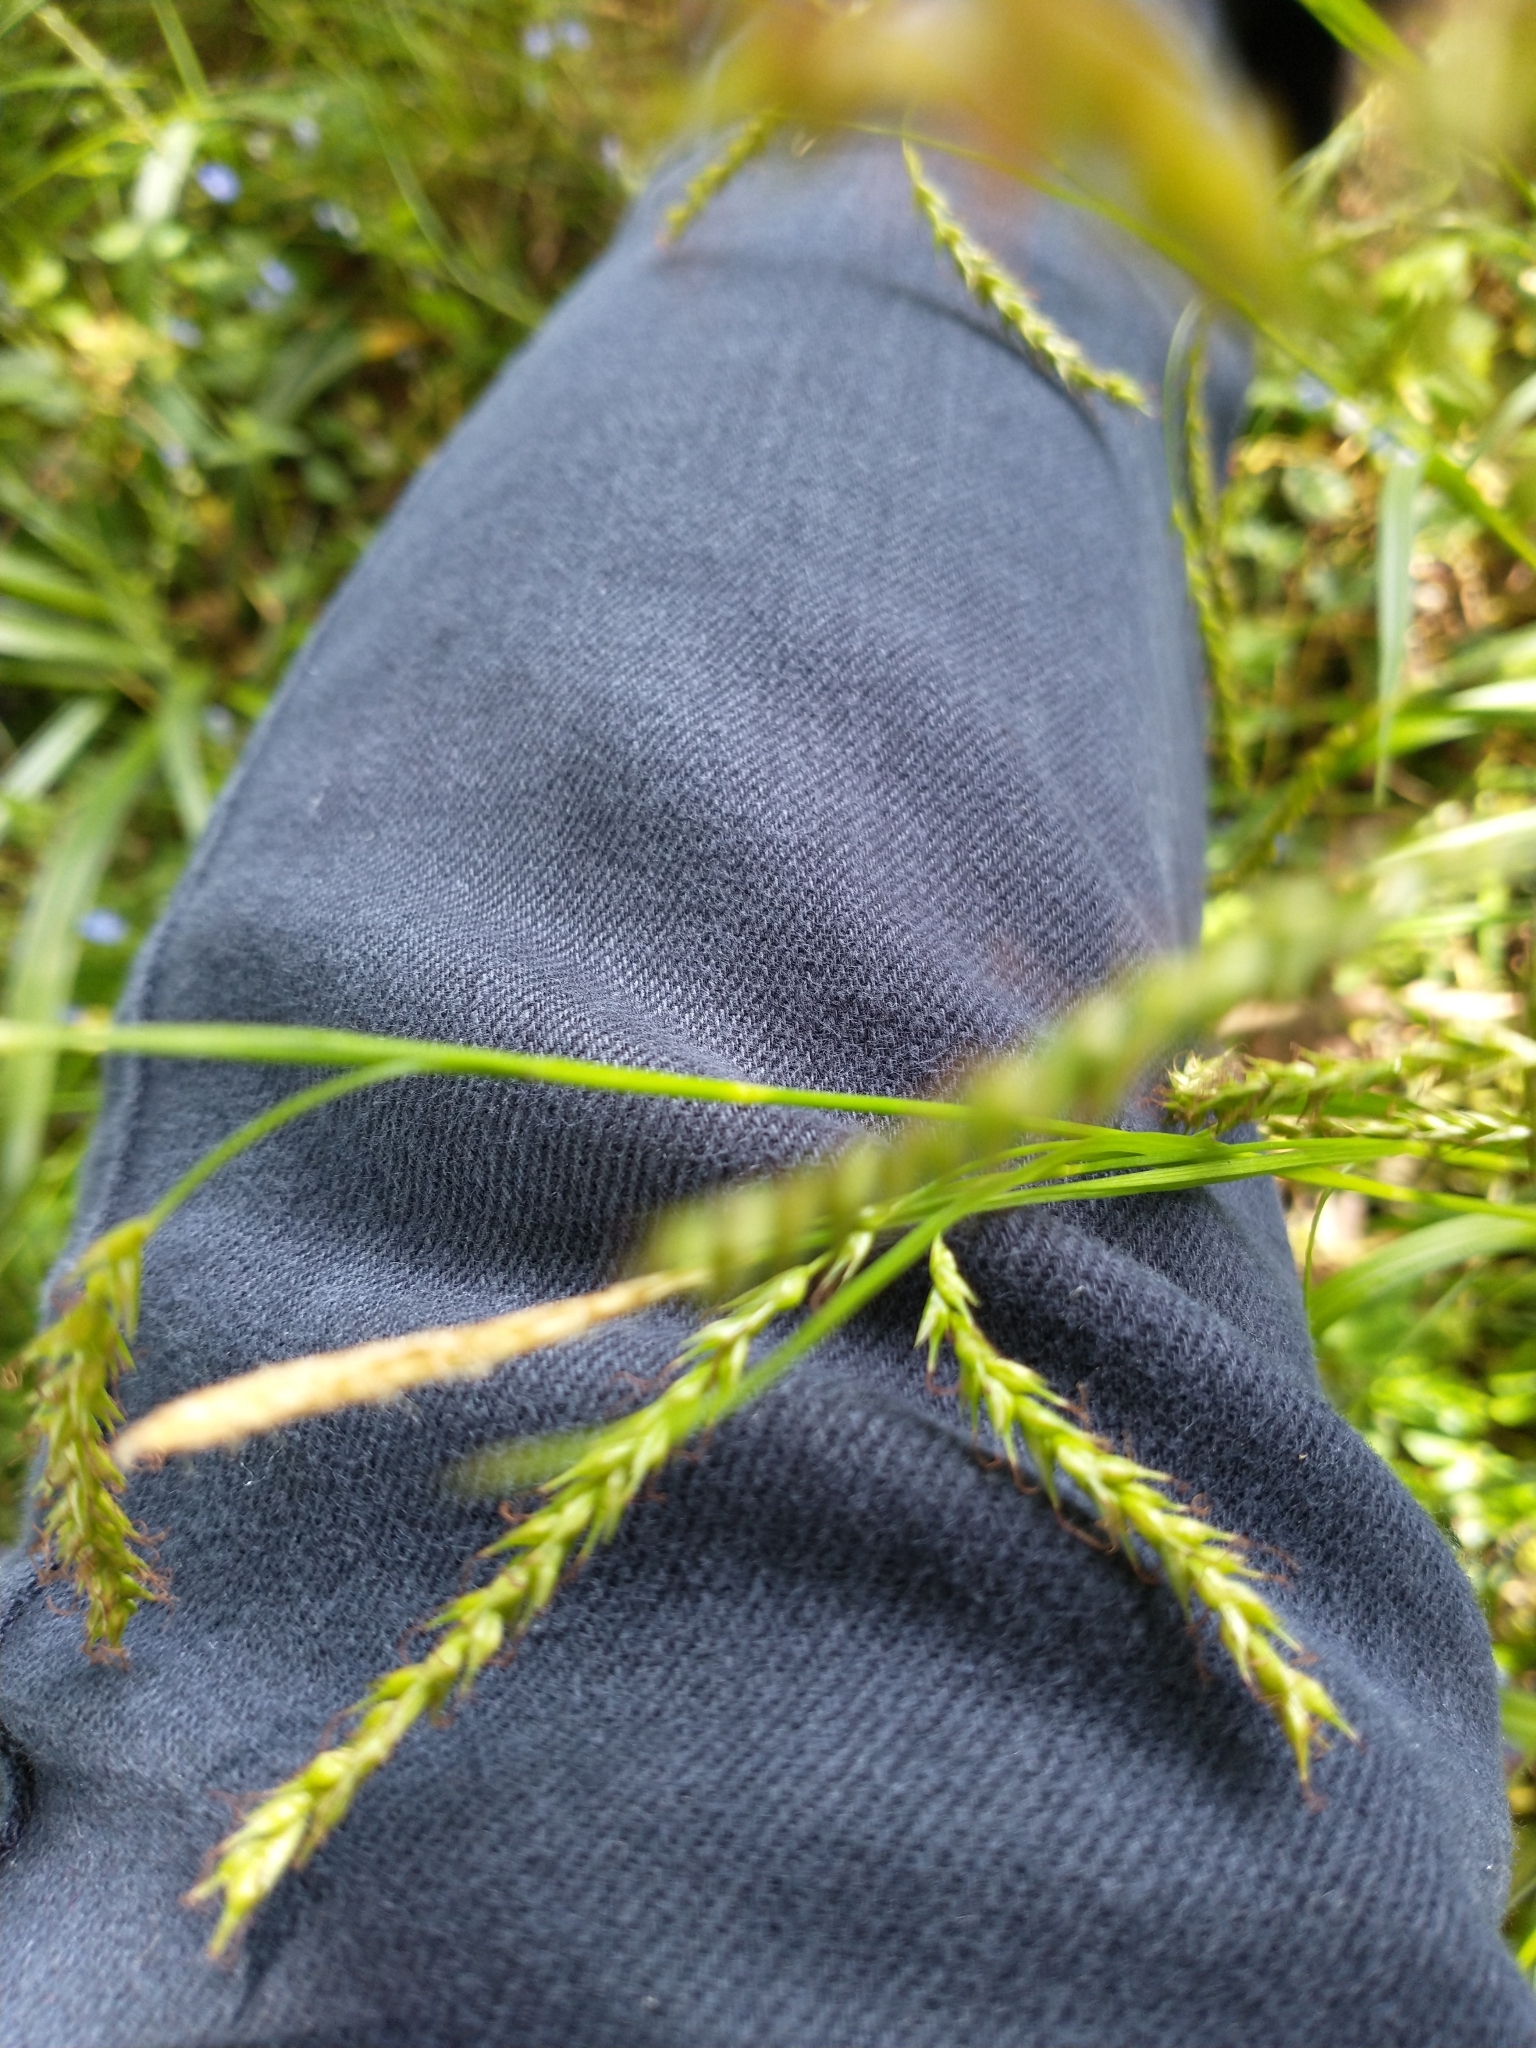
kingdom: Plantae
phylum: Tracheophyta
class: Liliopsida
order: Poales
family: Cyperaceae
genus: Carex
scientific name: Carex sylvatica
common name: Wood-sedge
